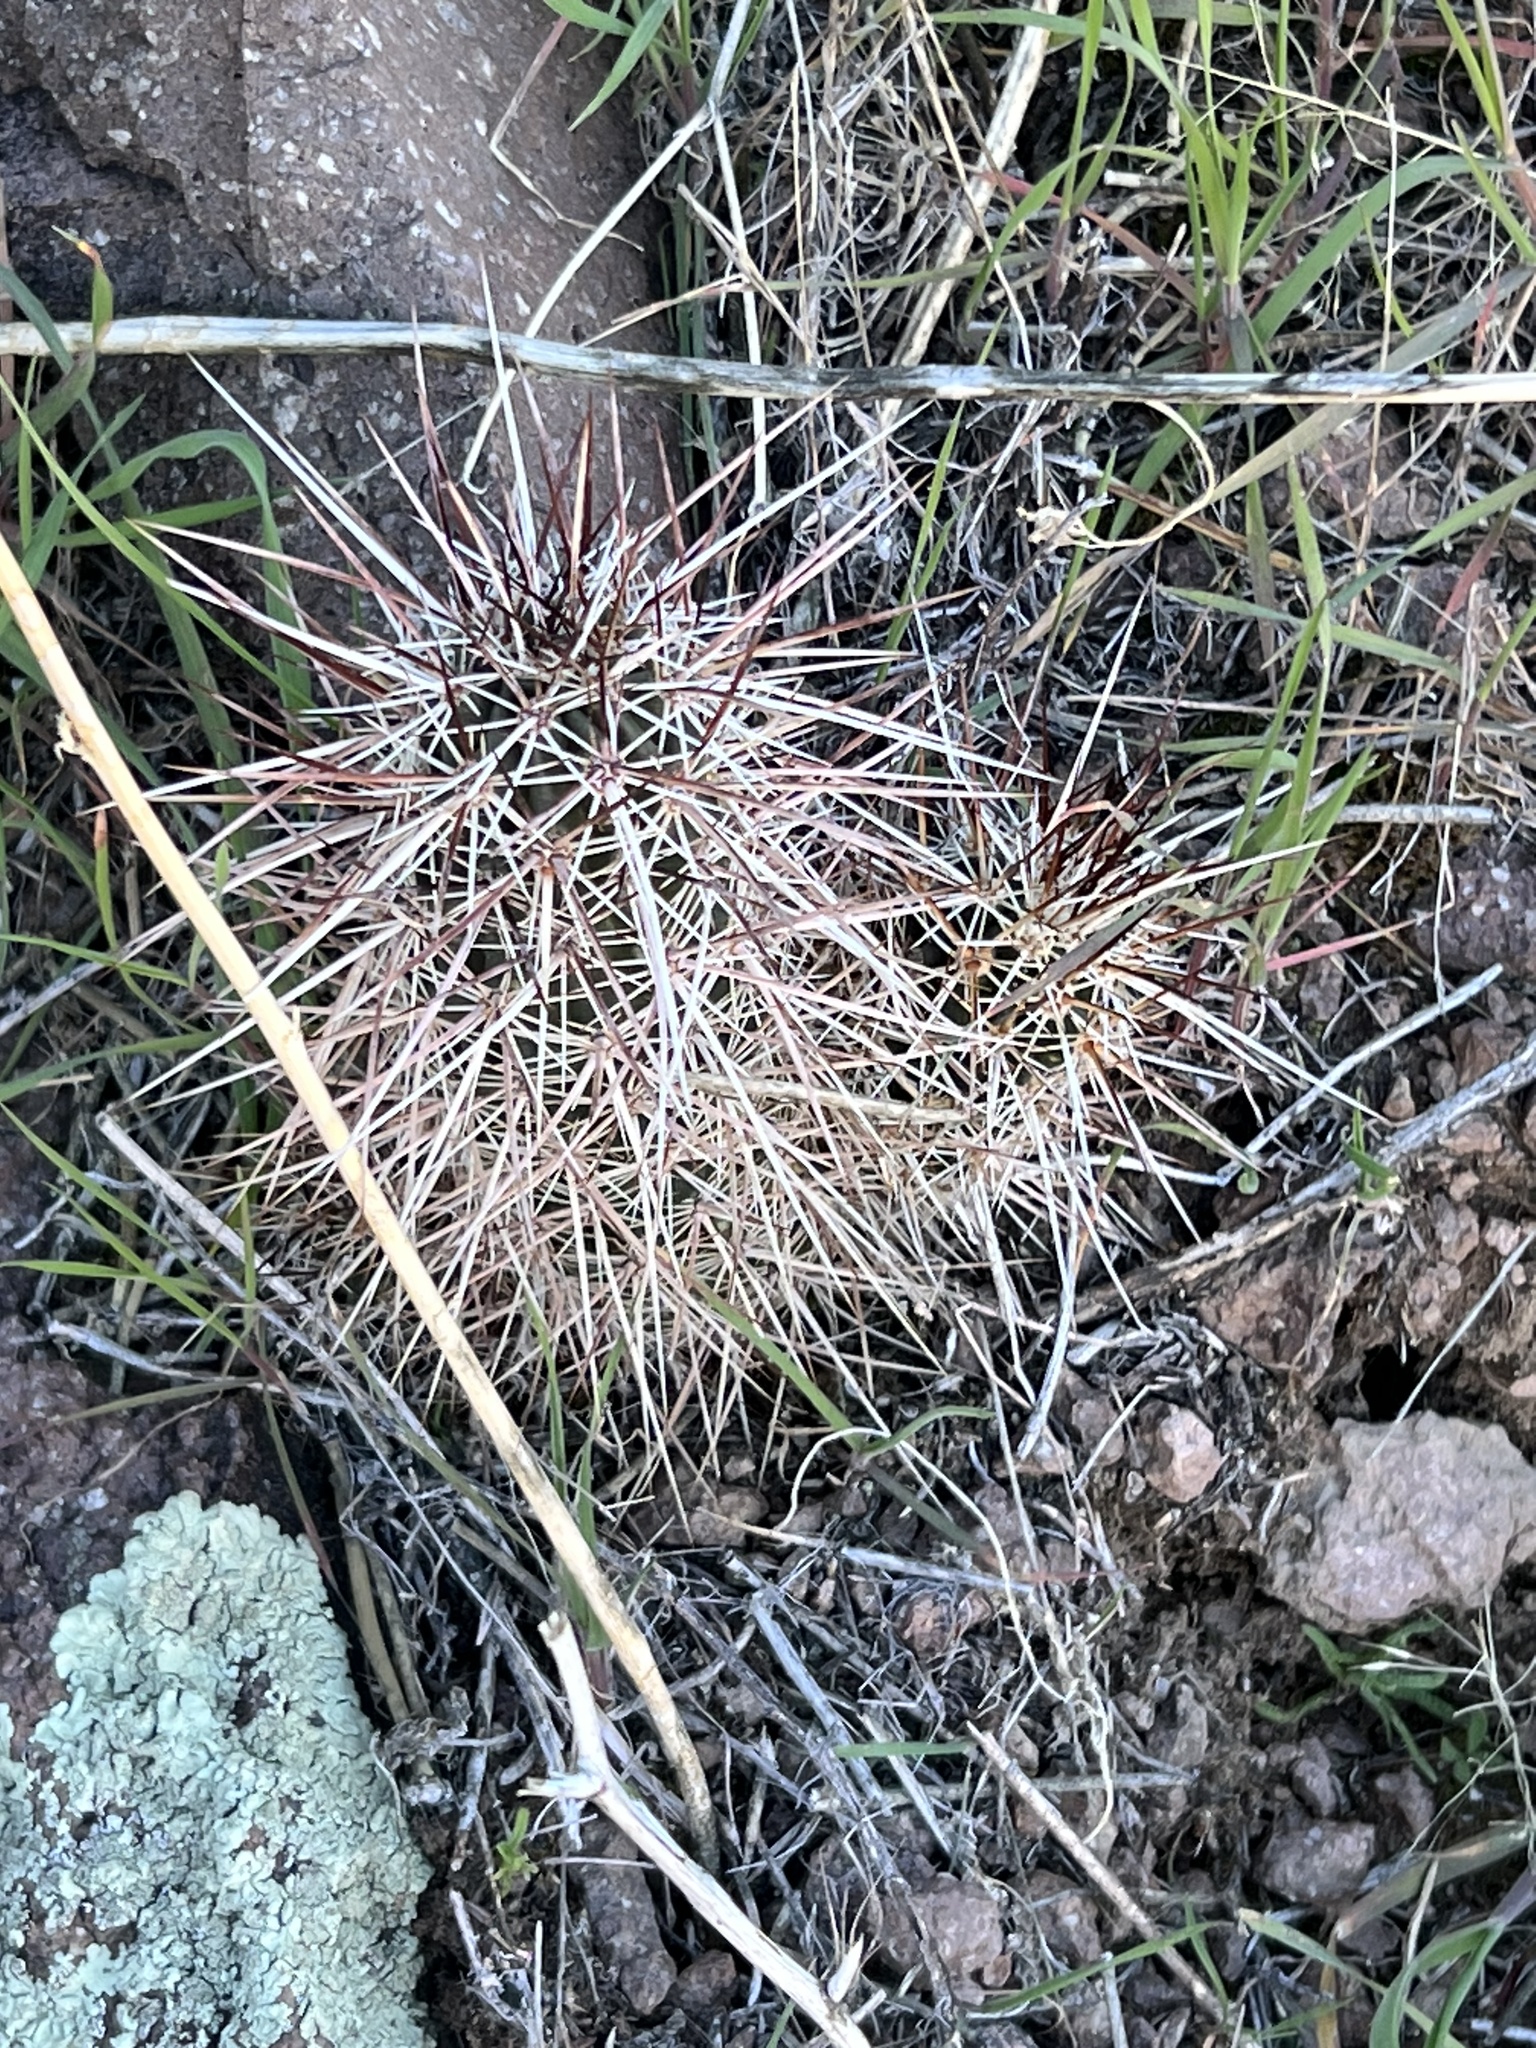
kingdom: Plantae
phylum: Tracheophyta
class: Magnoliopsida
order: Caryophyllales
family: Cactaceae
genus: Echinocereus
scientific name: Echinocereus engelmannii
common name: Engelmann's hedgehog cactus
